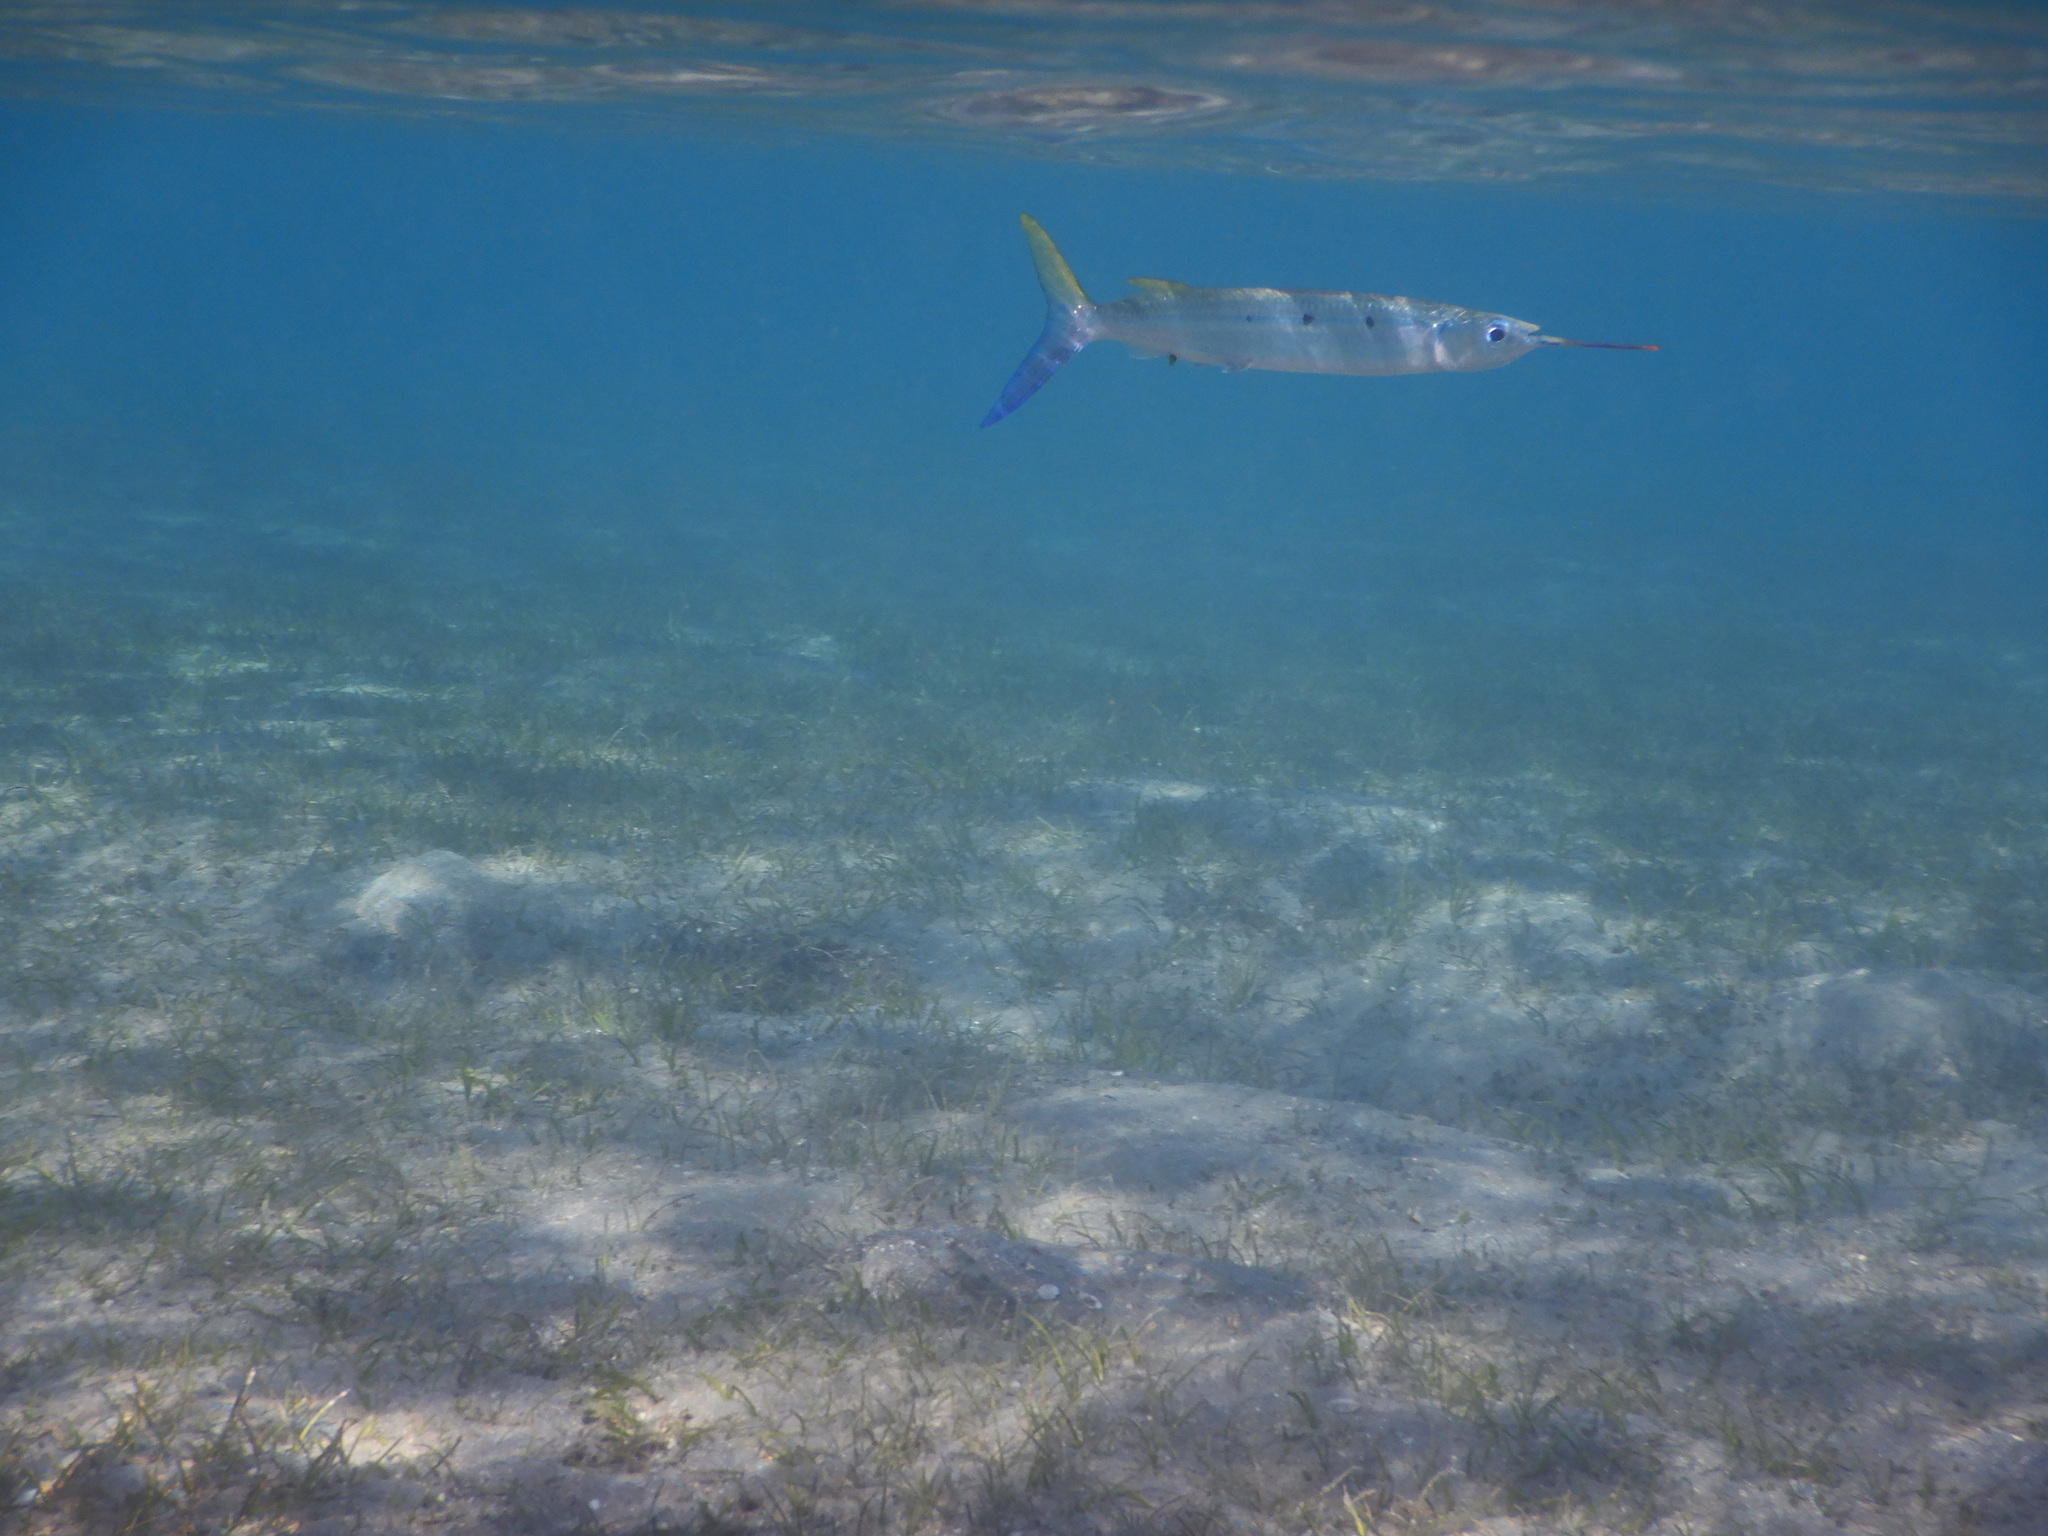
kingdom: Animalia
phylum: Chordata
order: Beloniformes
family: Hemiramphidae
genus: Hemiramphus
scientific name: Hemiramphus far
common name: Black-barred halfbeak
